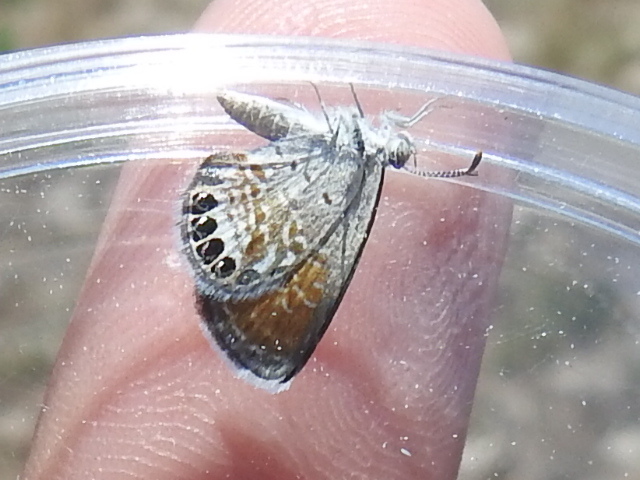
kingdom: Animalia
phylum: Arthropoda
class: Insecta
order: Lepidoptera
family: Lycaenidae
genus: Brephidium
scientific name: Brephidium exilis
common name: Pygmy blue
